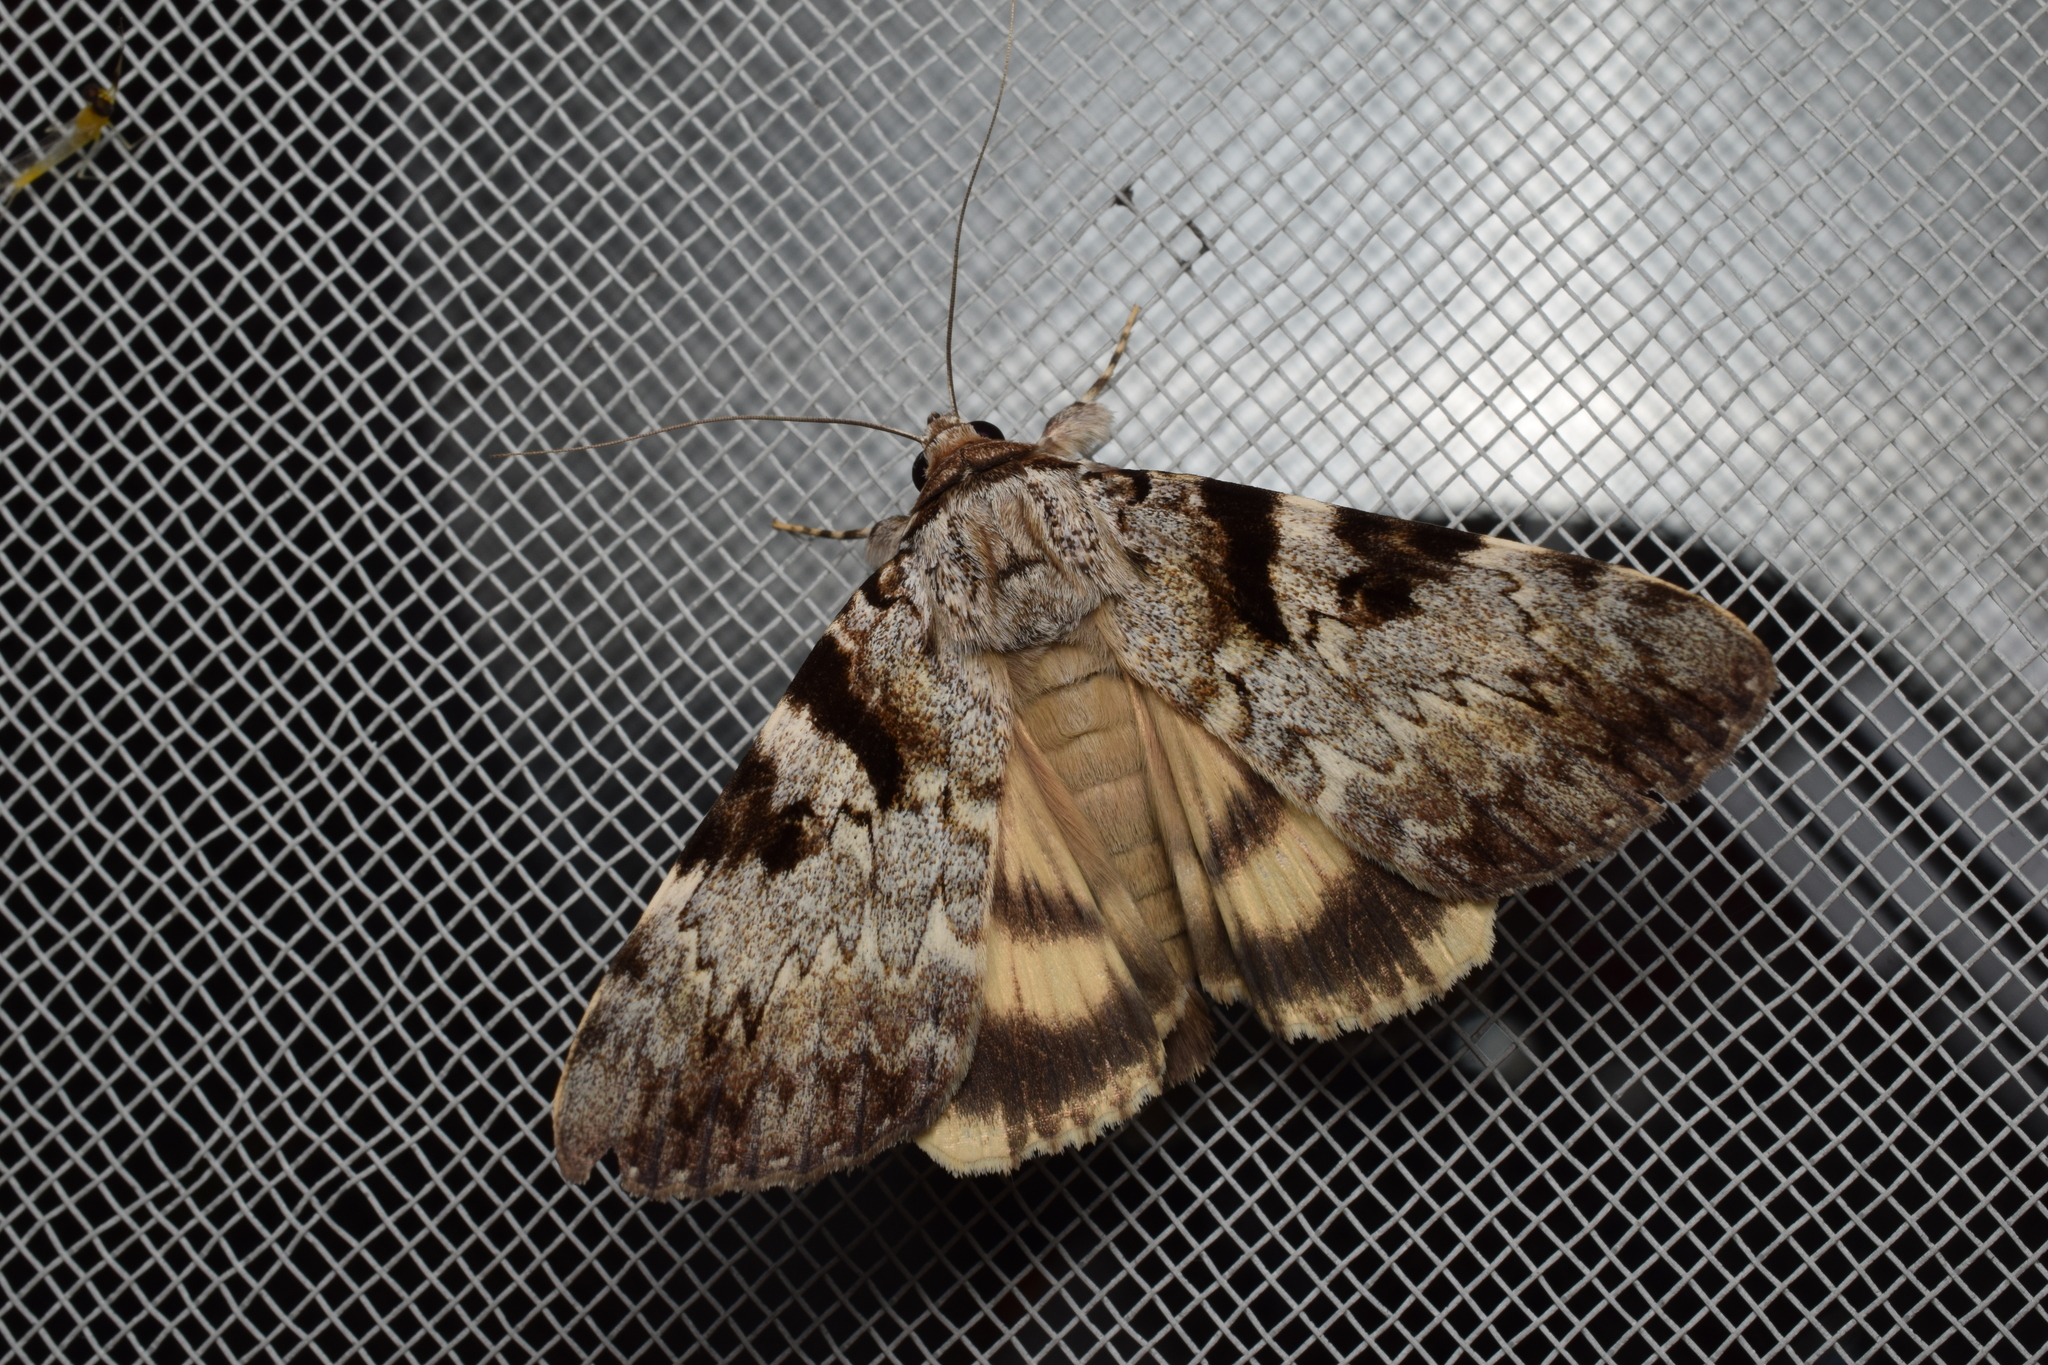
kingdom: Animalia
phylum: Arthropoda
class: Insecta
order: Lepidoptera
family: Erebidae
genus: Catocala
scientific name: Catocala intacta
